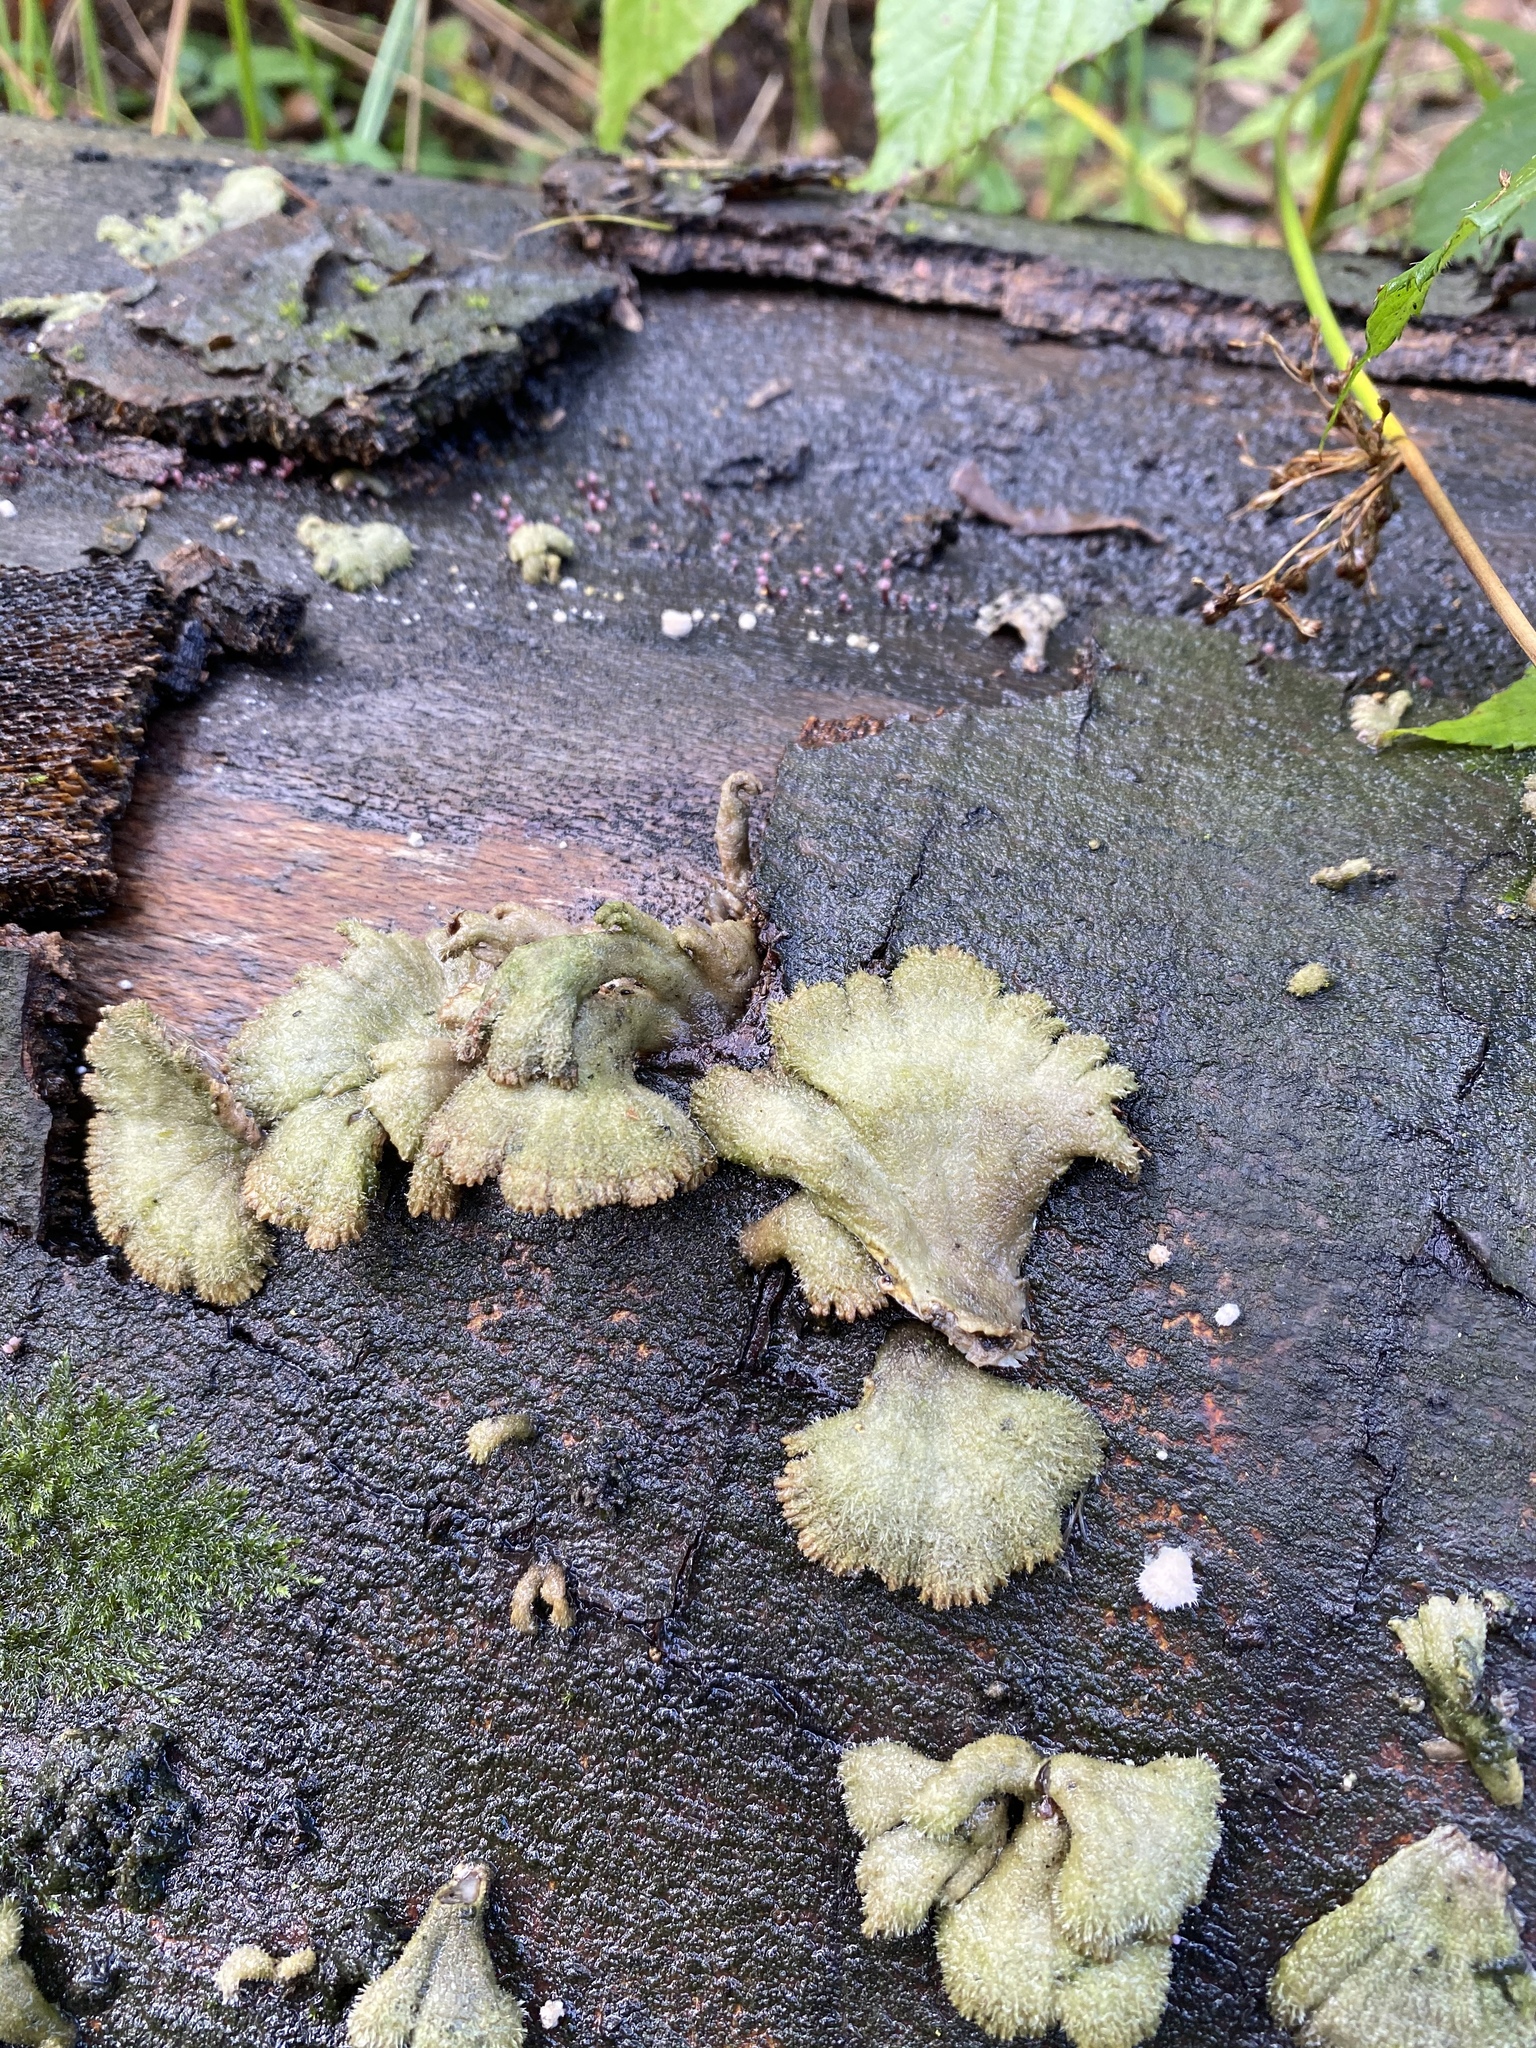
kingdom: Fungi
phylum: Basidiomycota
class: Agaricomycetes
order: Agaricales
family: Schizophyllaceae
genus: Schizophyllum
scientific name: Schizophyllum commune
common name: Common porecrust
